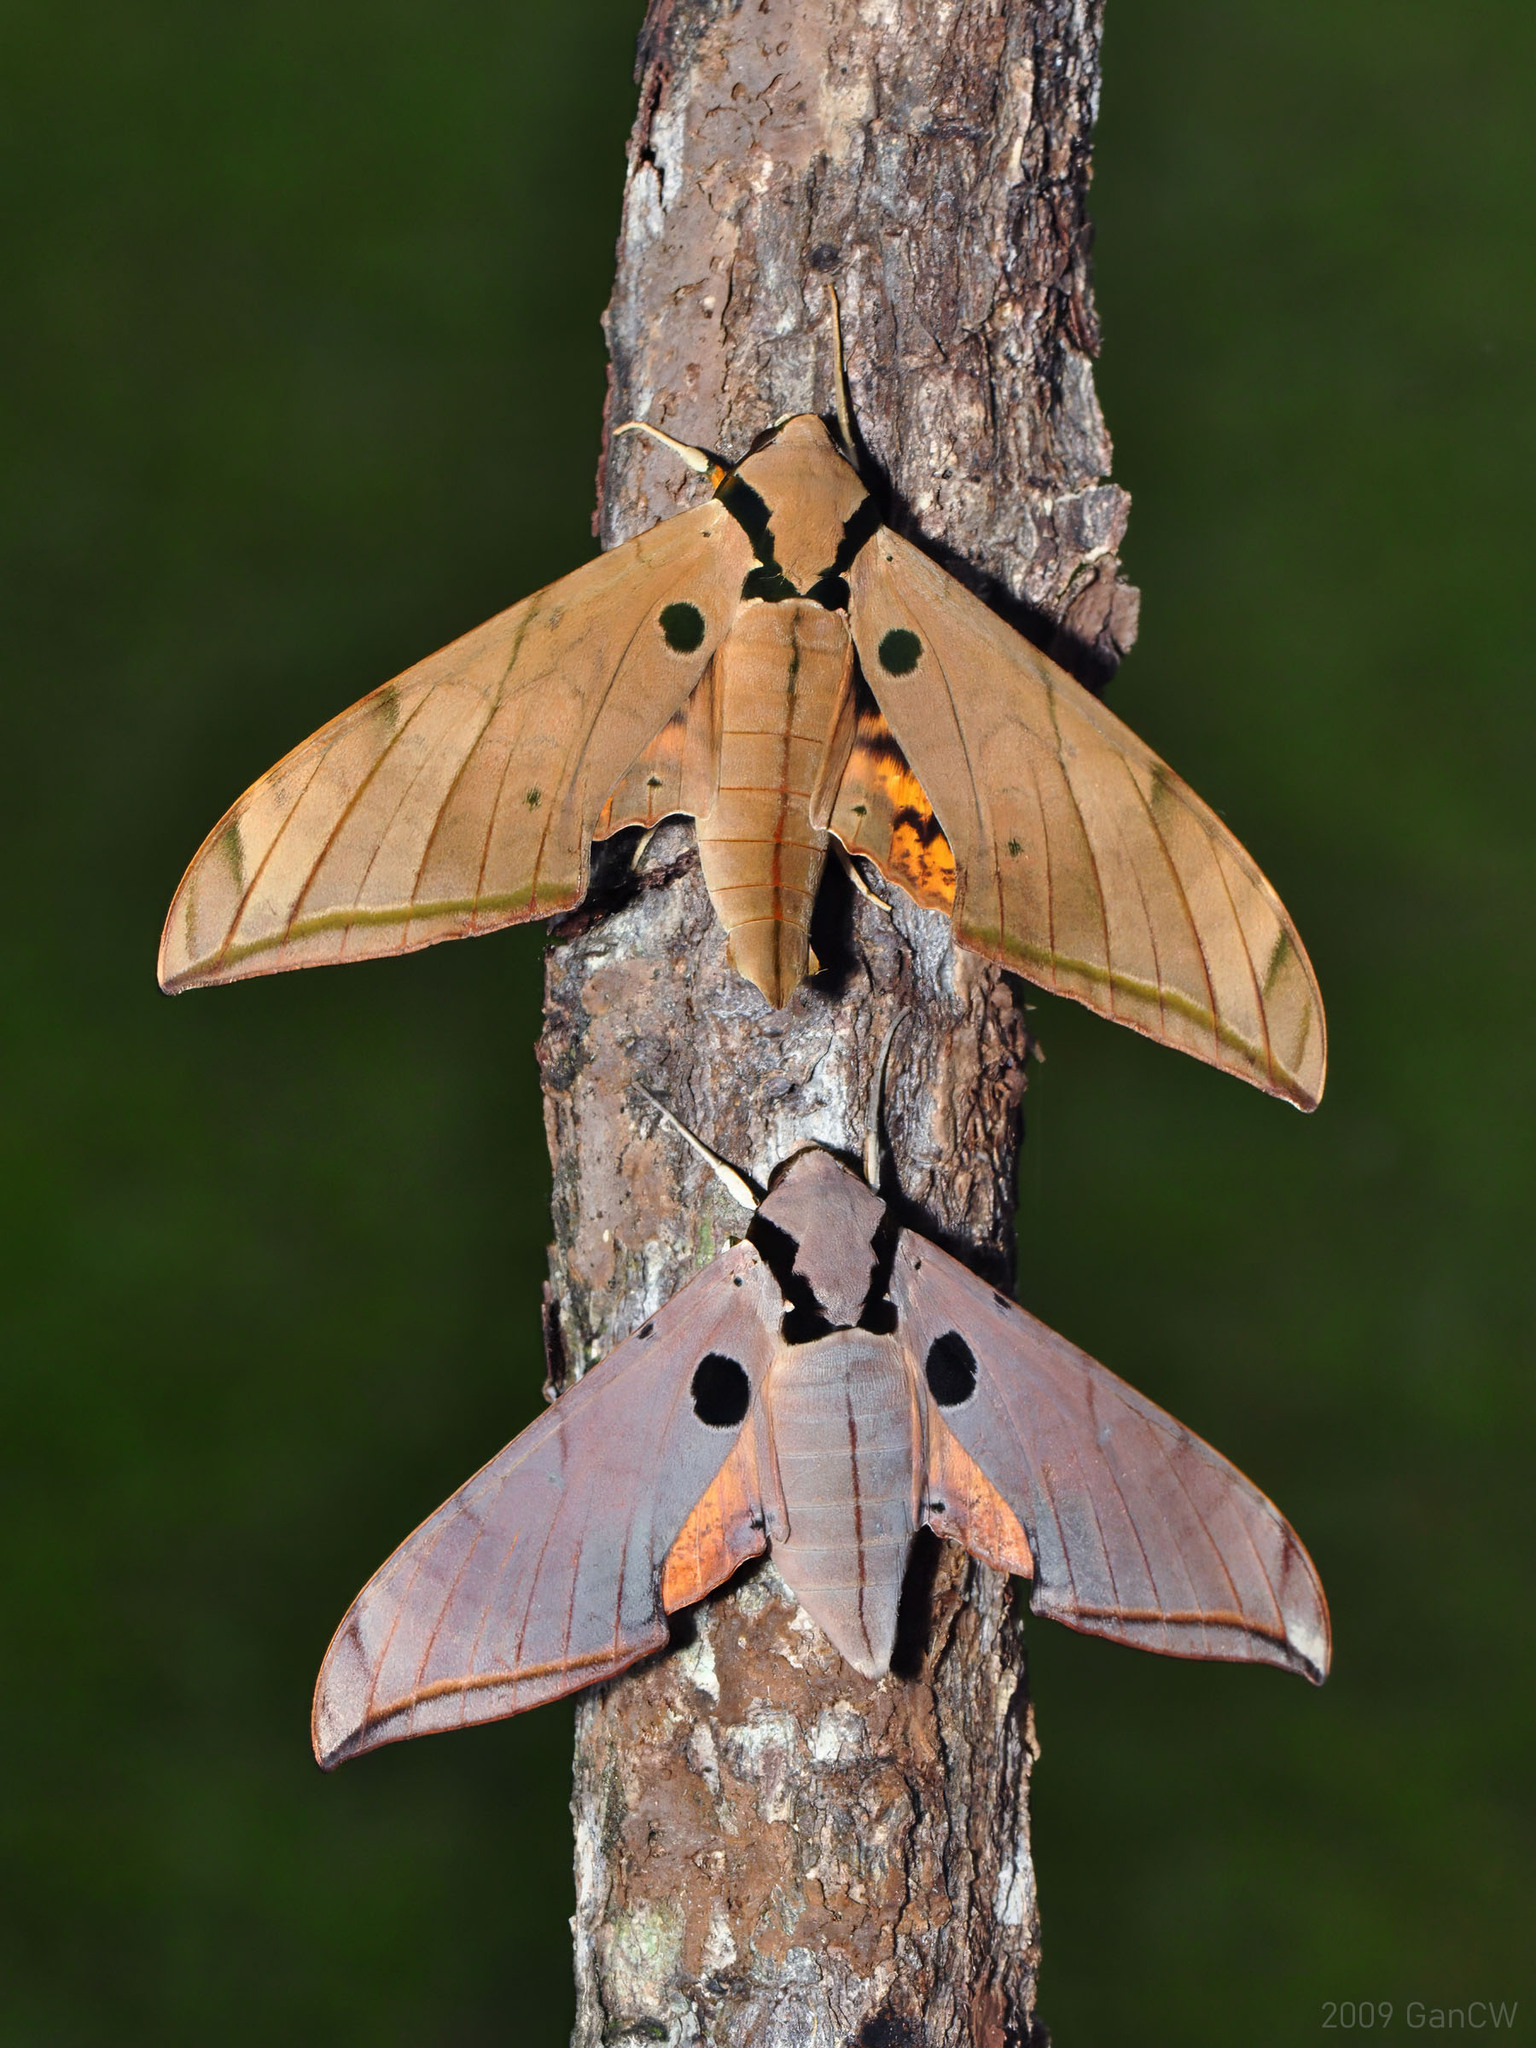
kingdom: Animalia
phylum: Arthropoda
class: Insecta
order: Lepidoptera
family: Sphingidae
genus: Ambulyx
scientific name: Ambulyx obliterata
